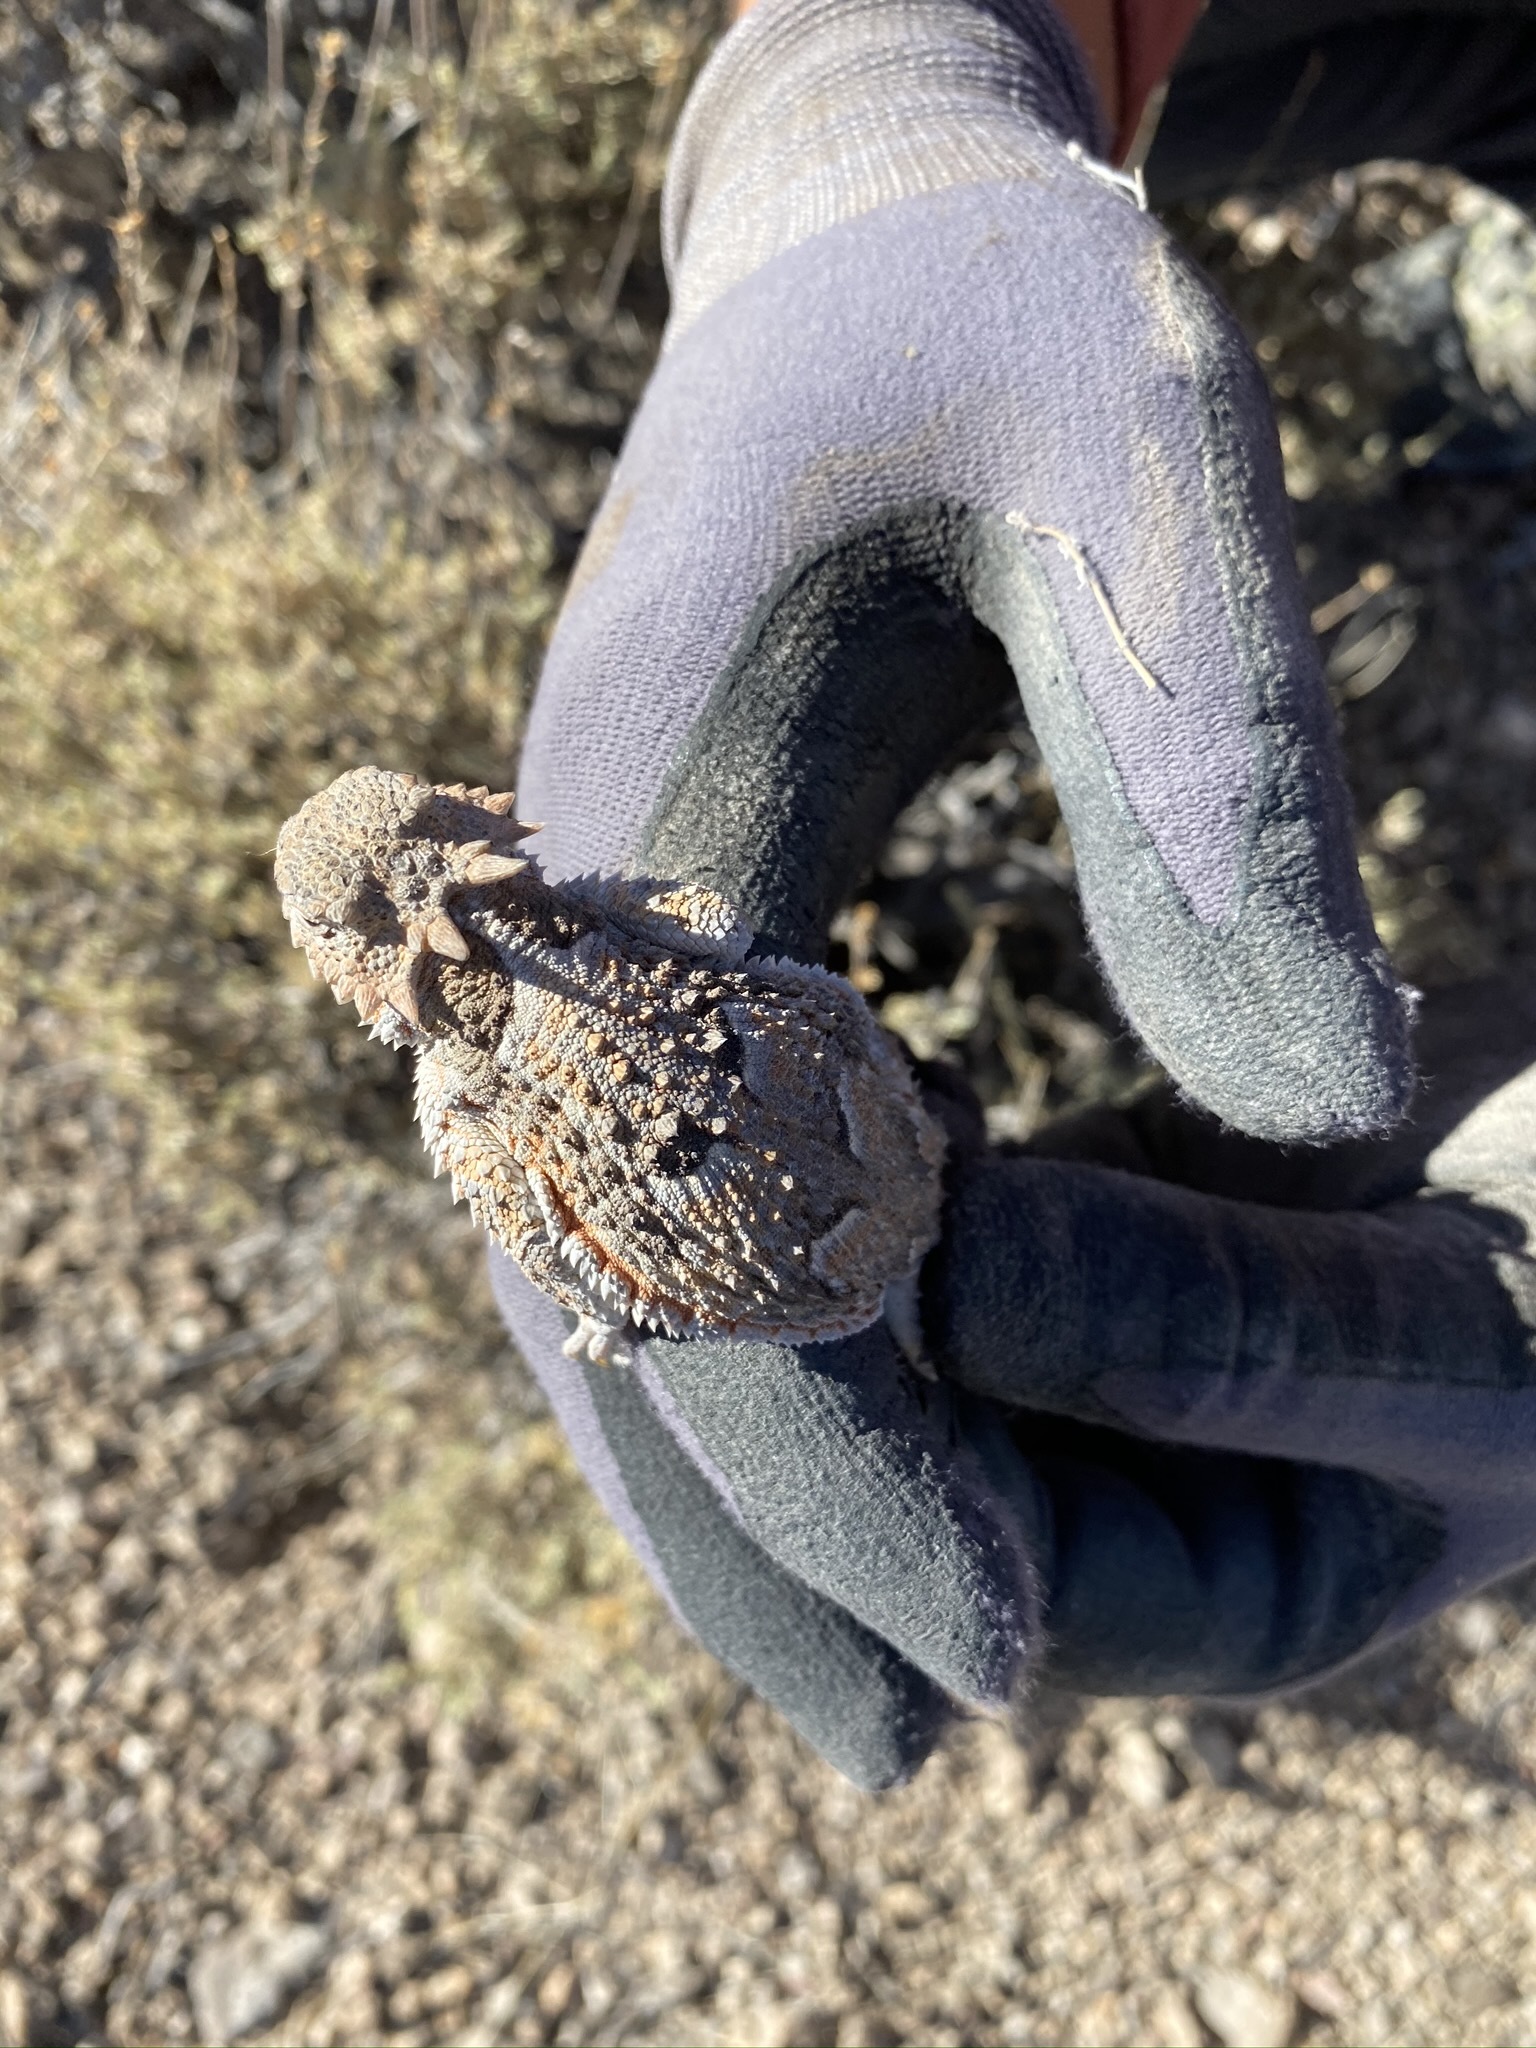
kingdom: Animalia
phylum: Chordata
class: Squamata
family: Phrynosomatidae
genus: Phrynosoma
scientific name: Phrynosoma platyrhinos
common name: Desert horned lizard
